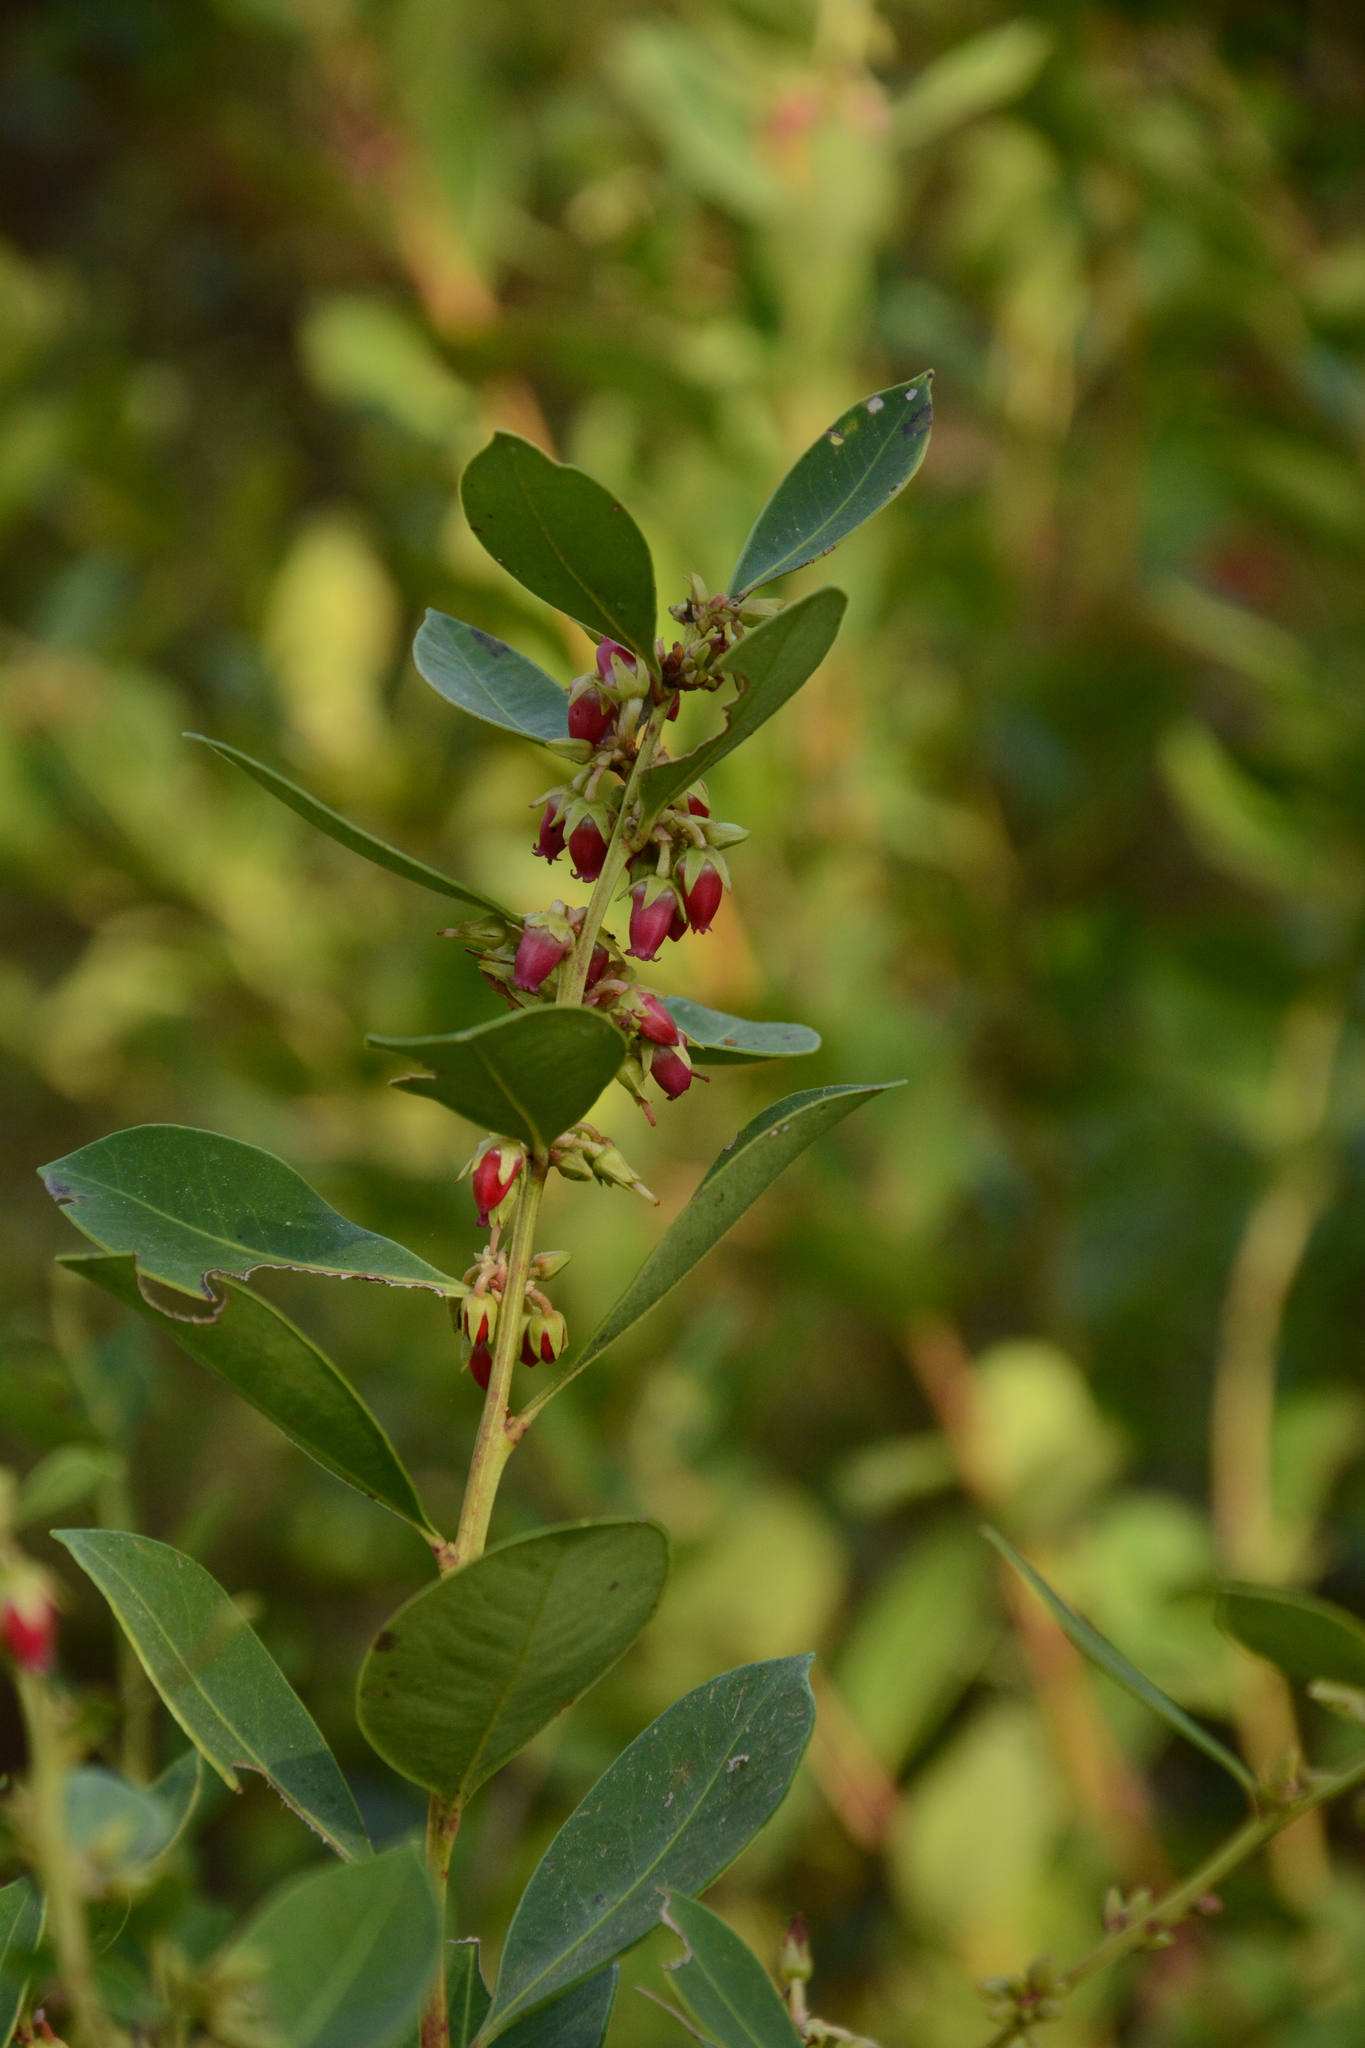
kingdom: Plantae
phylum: Tracheophyta
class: Magnoliopsida
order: Ericales
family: Ericaceae
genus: Lyonia
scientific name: Lyonia lucida
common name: Fetterbush
